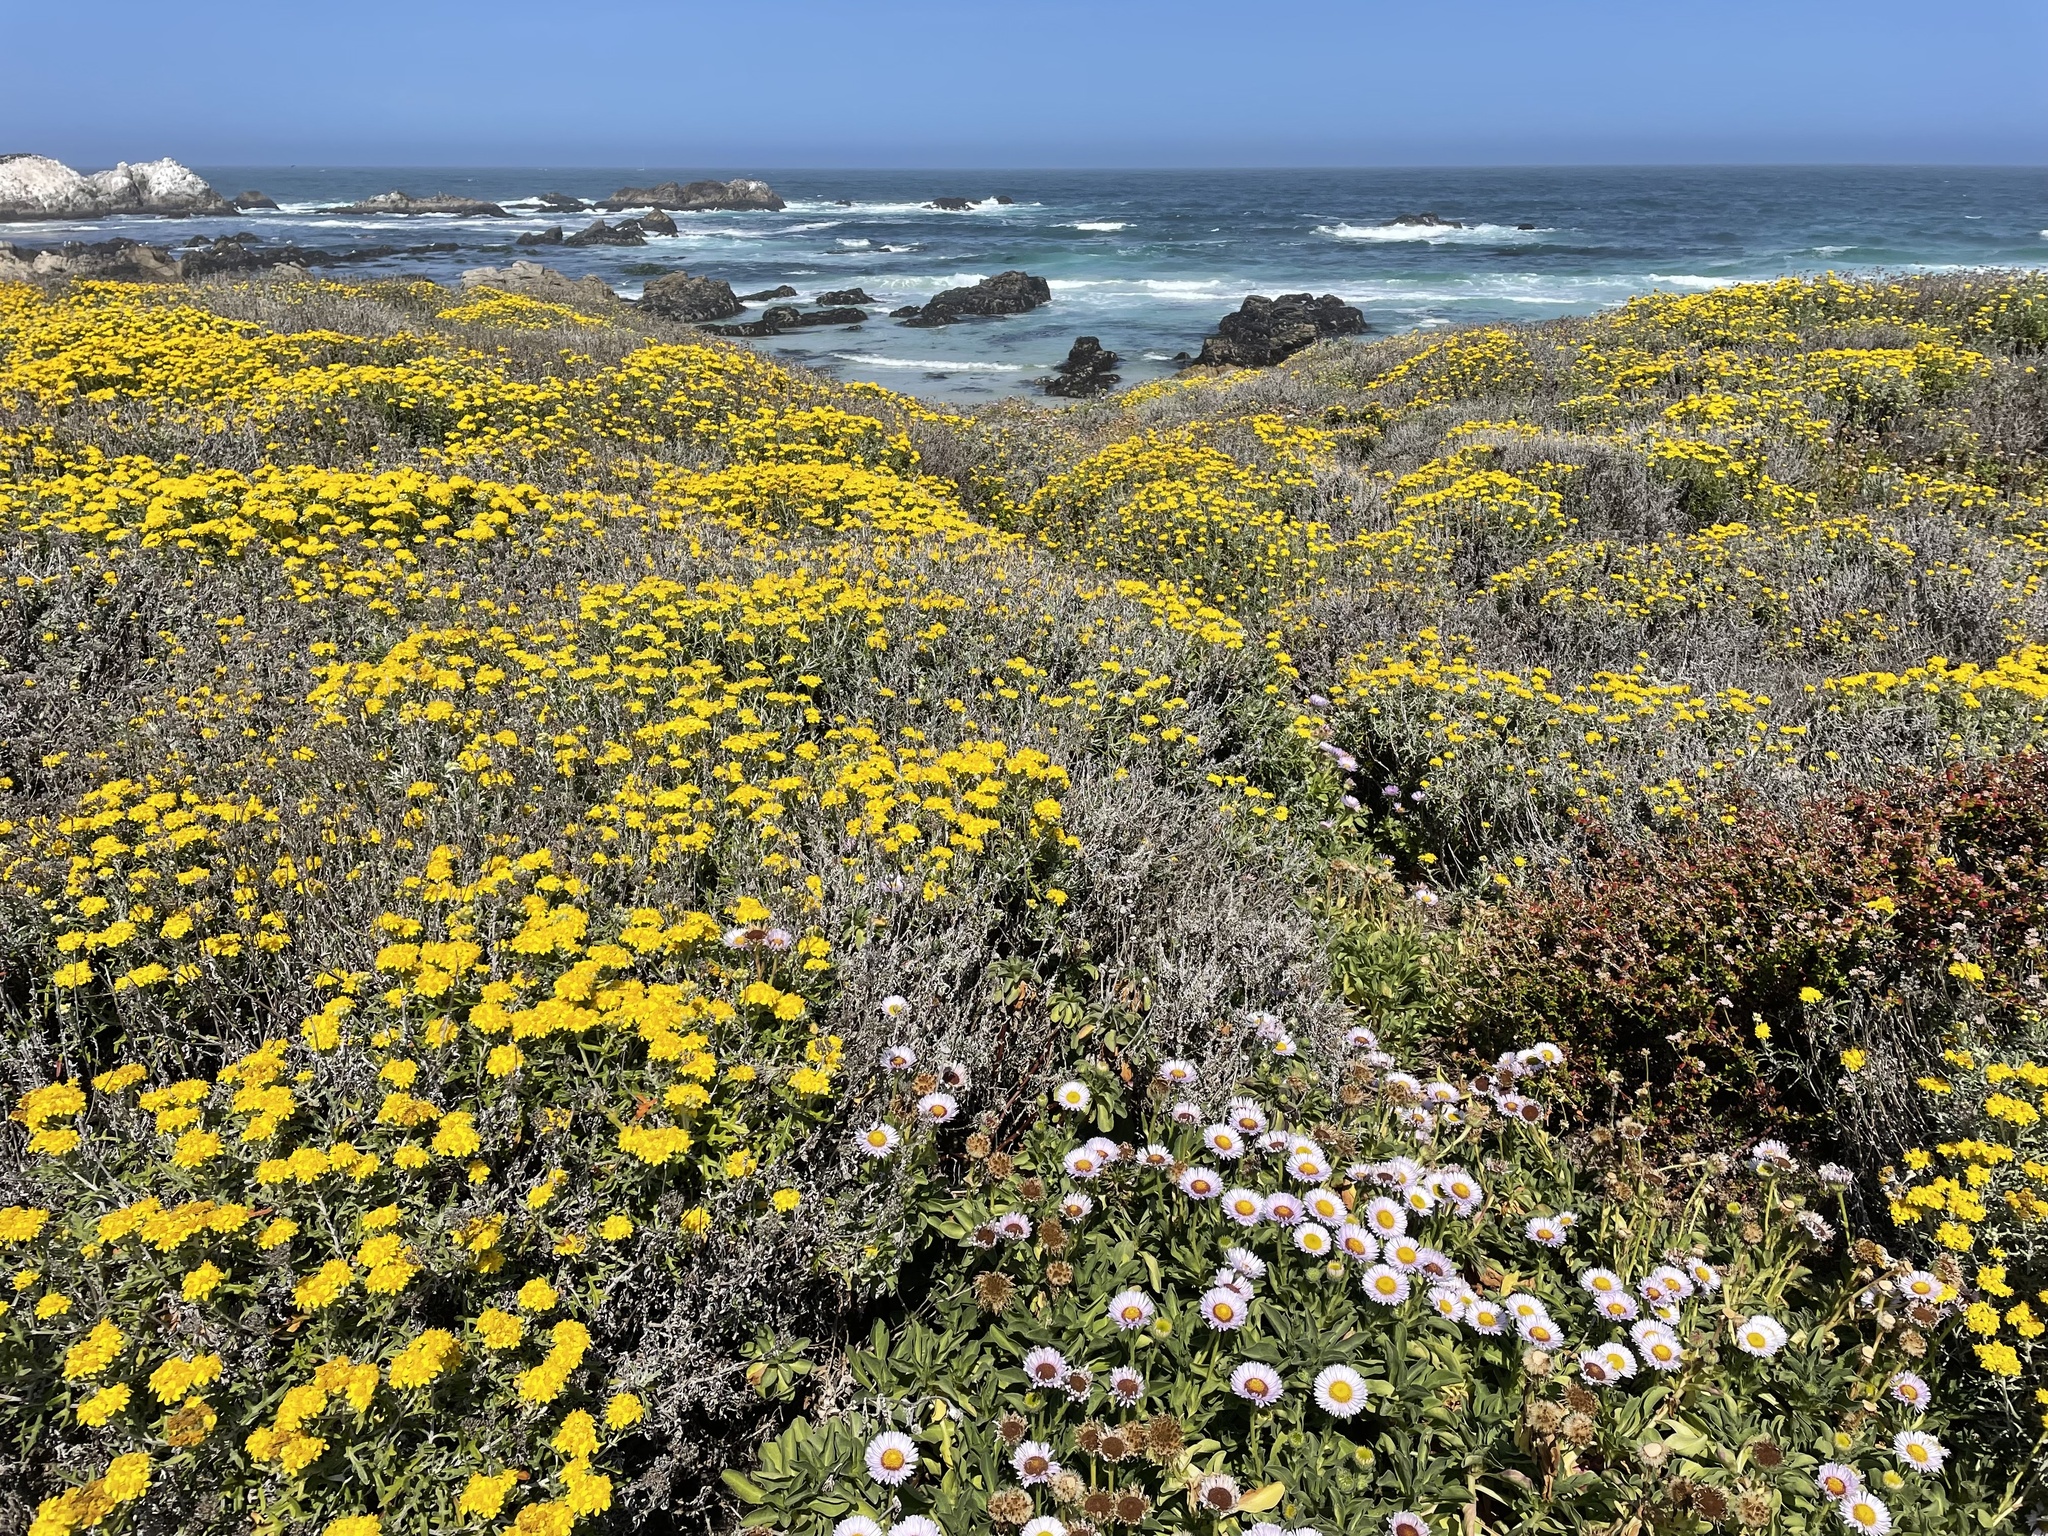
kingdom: Plantae
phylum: Tracheophyta
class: Magnoliopsida
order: Asterales
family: Asteraceae
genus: Eriophyllum
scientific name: Eriophyllum staechadifolium
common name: Lizardtail
